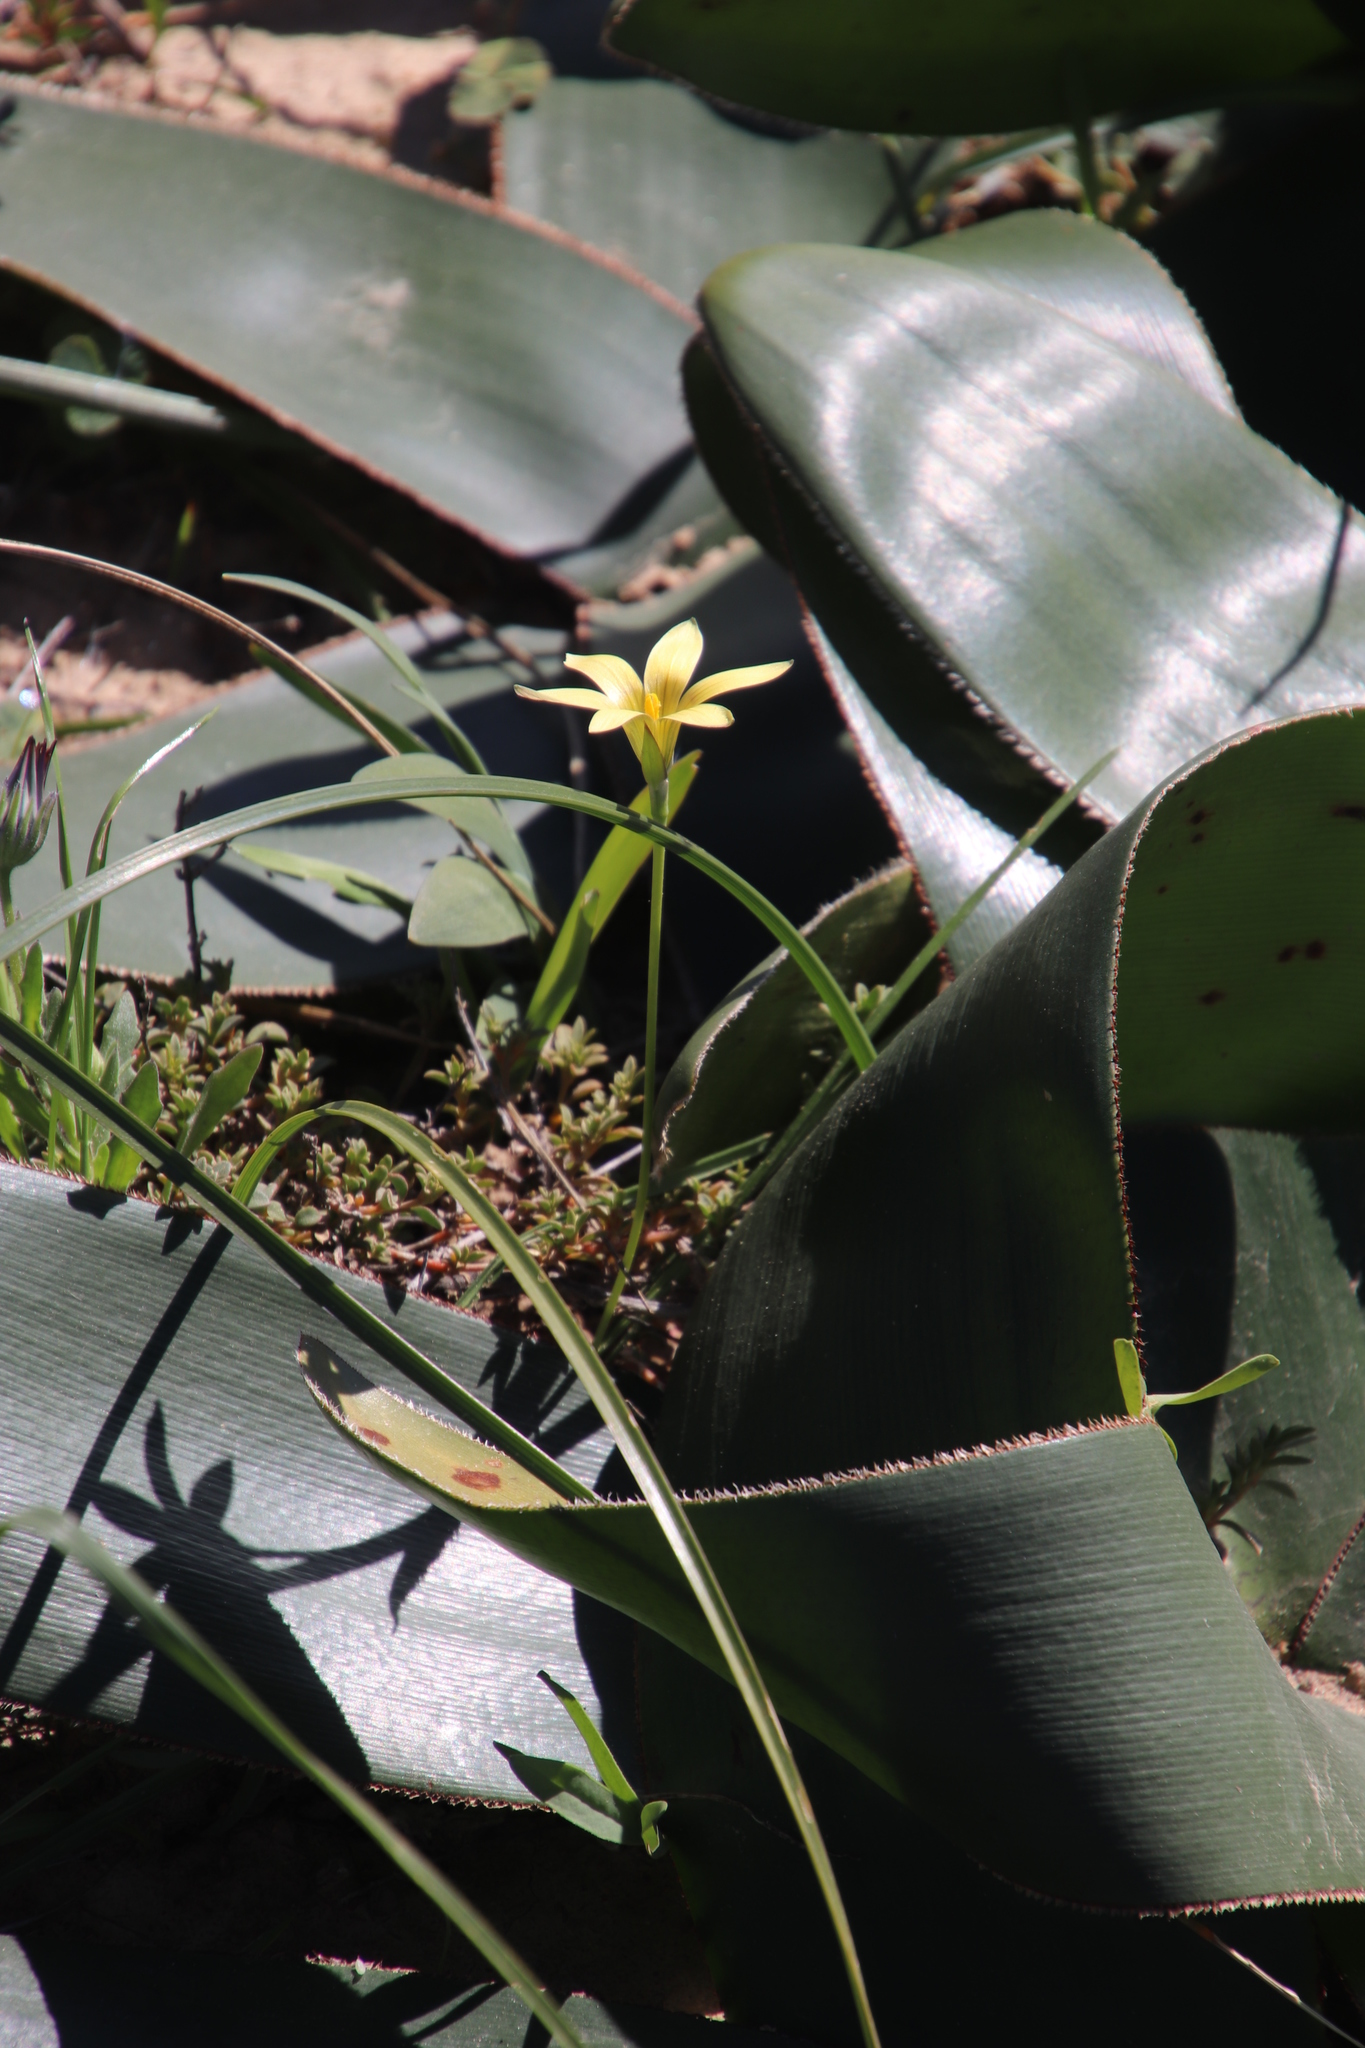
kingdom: Plantae
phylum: Tracheophyta
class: Liliopsida
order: Asparagales
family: Iridaceae
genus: Romulea
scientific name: Romulea hirta
